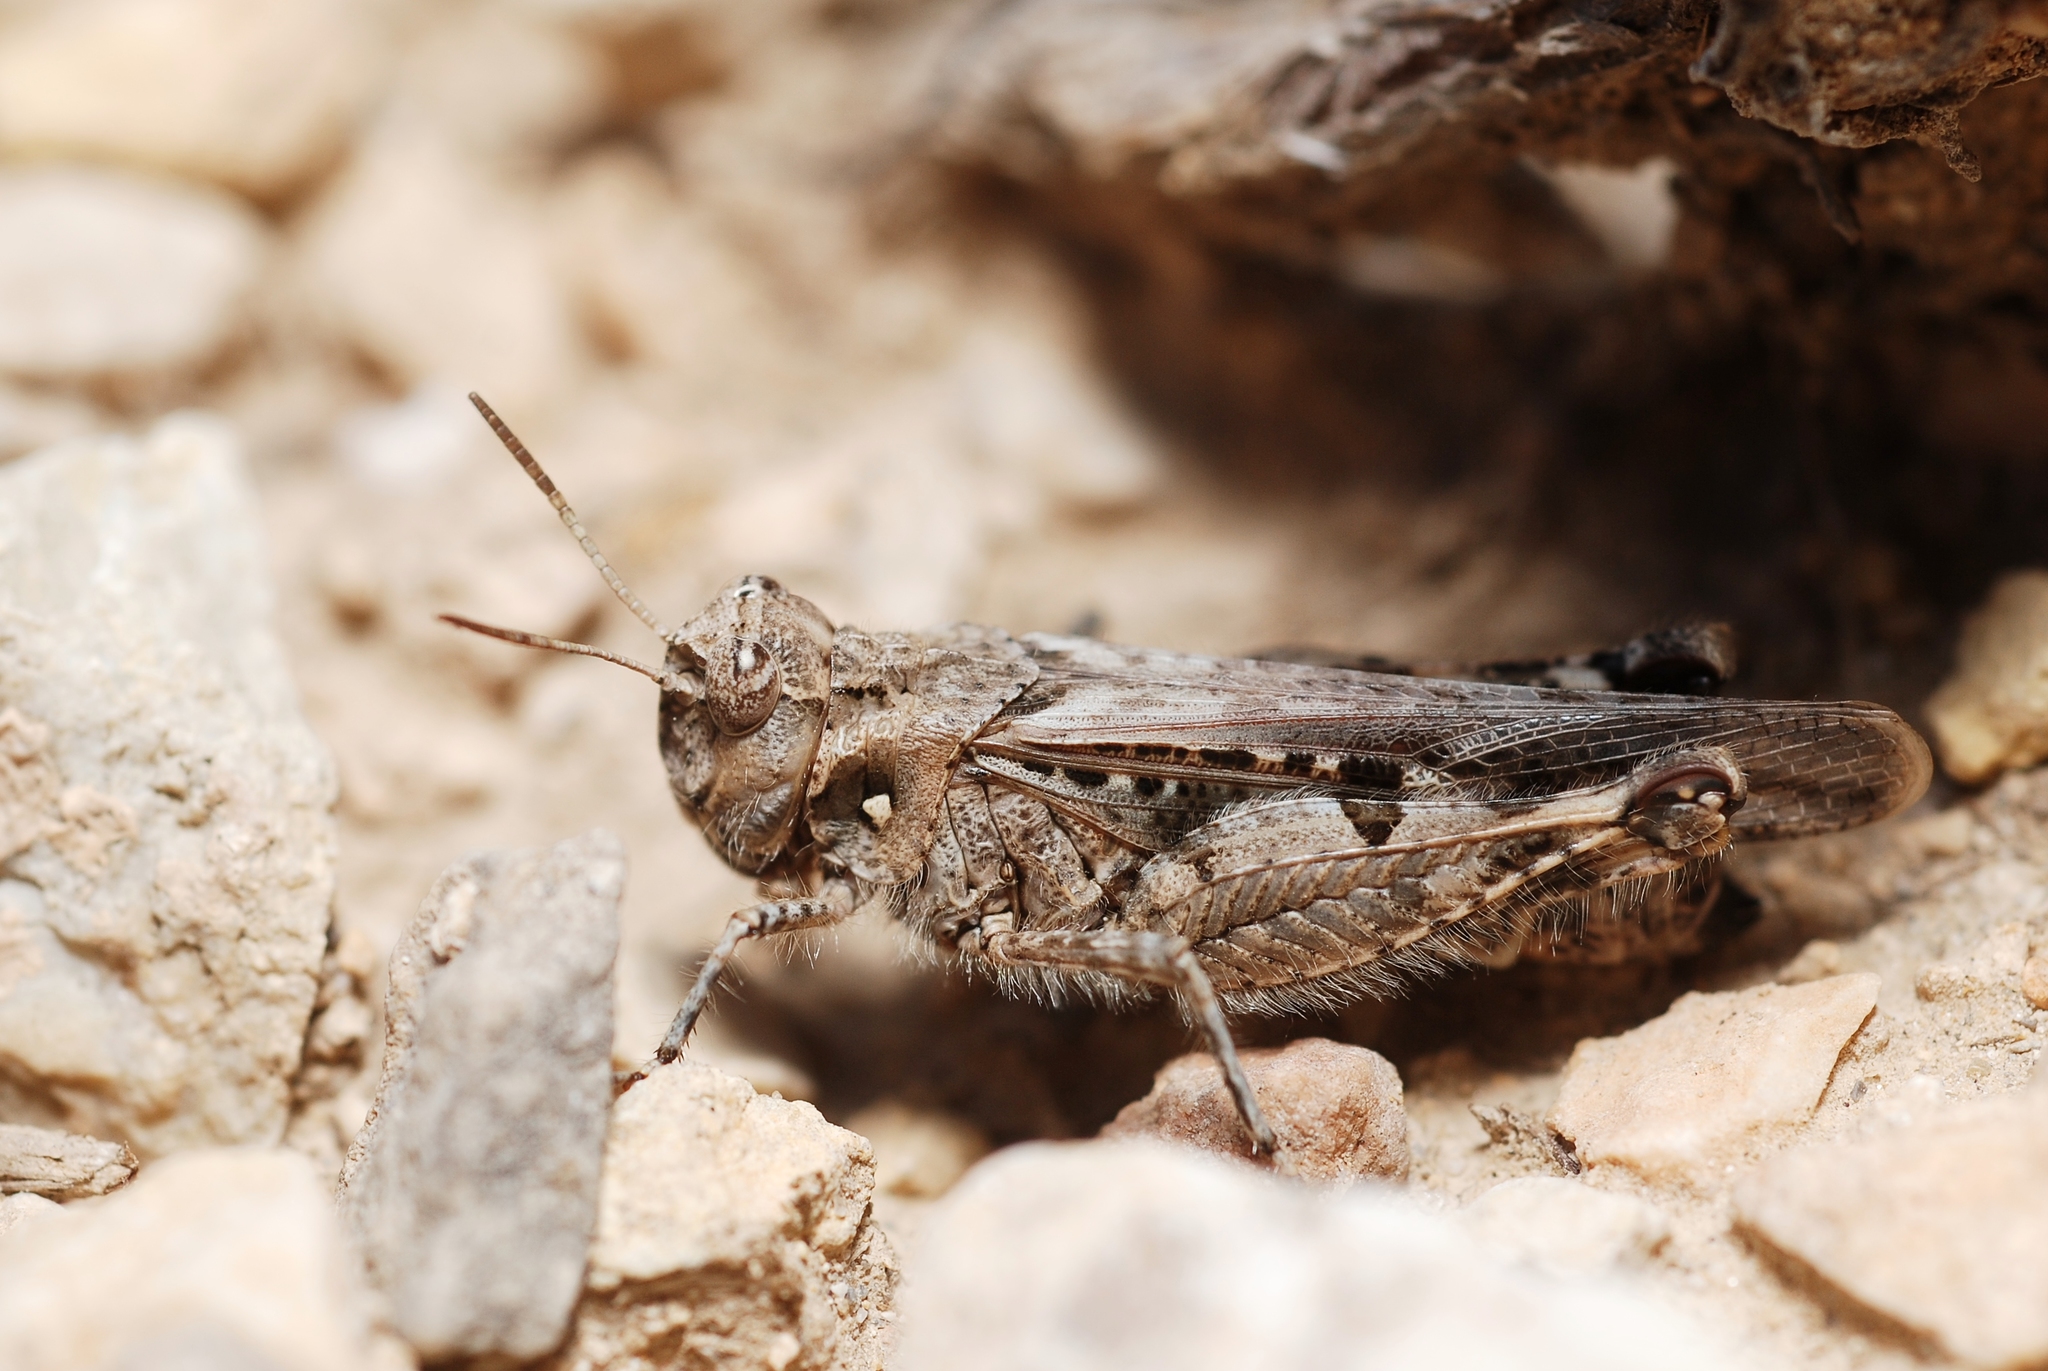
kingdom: Animalia
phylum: Arthropoda
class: Insecta
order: Orthoptera
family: Acrididae
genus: Acrotylus
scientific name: Acrotylus fischeri
